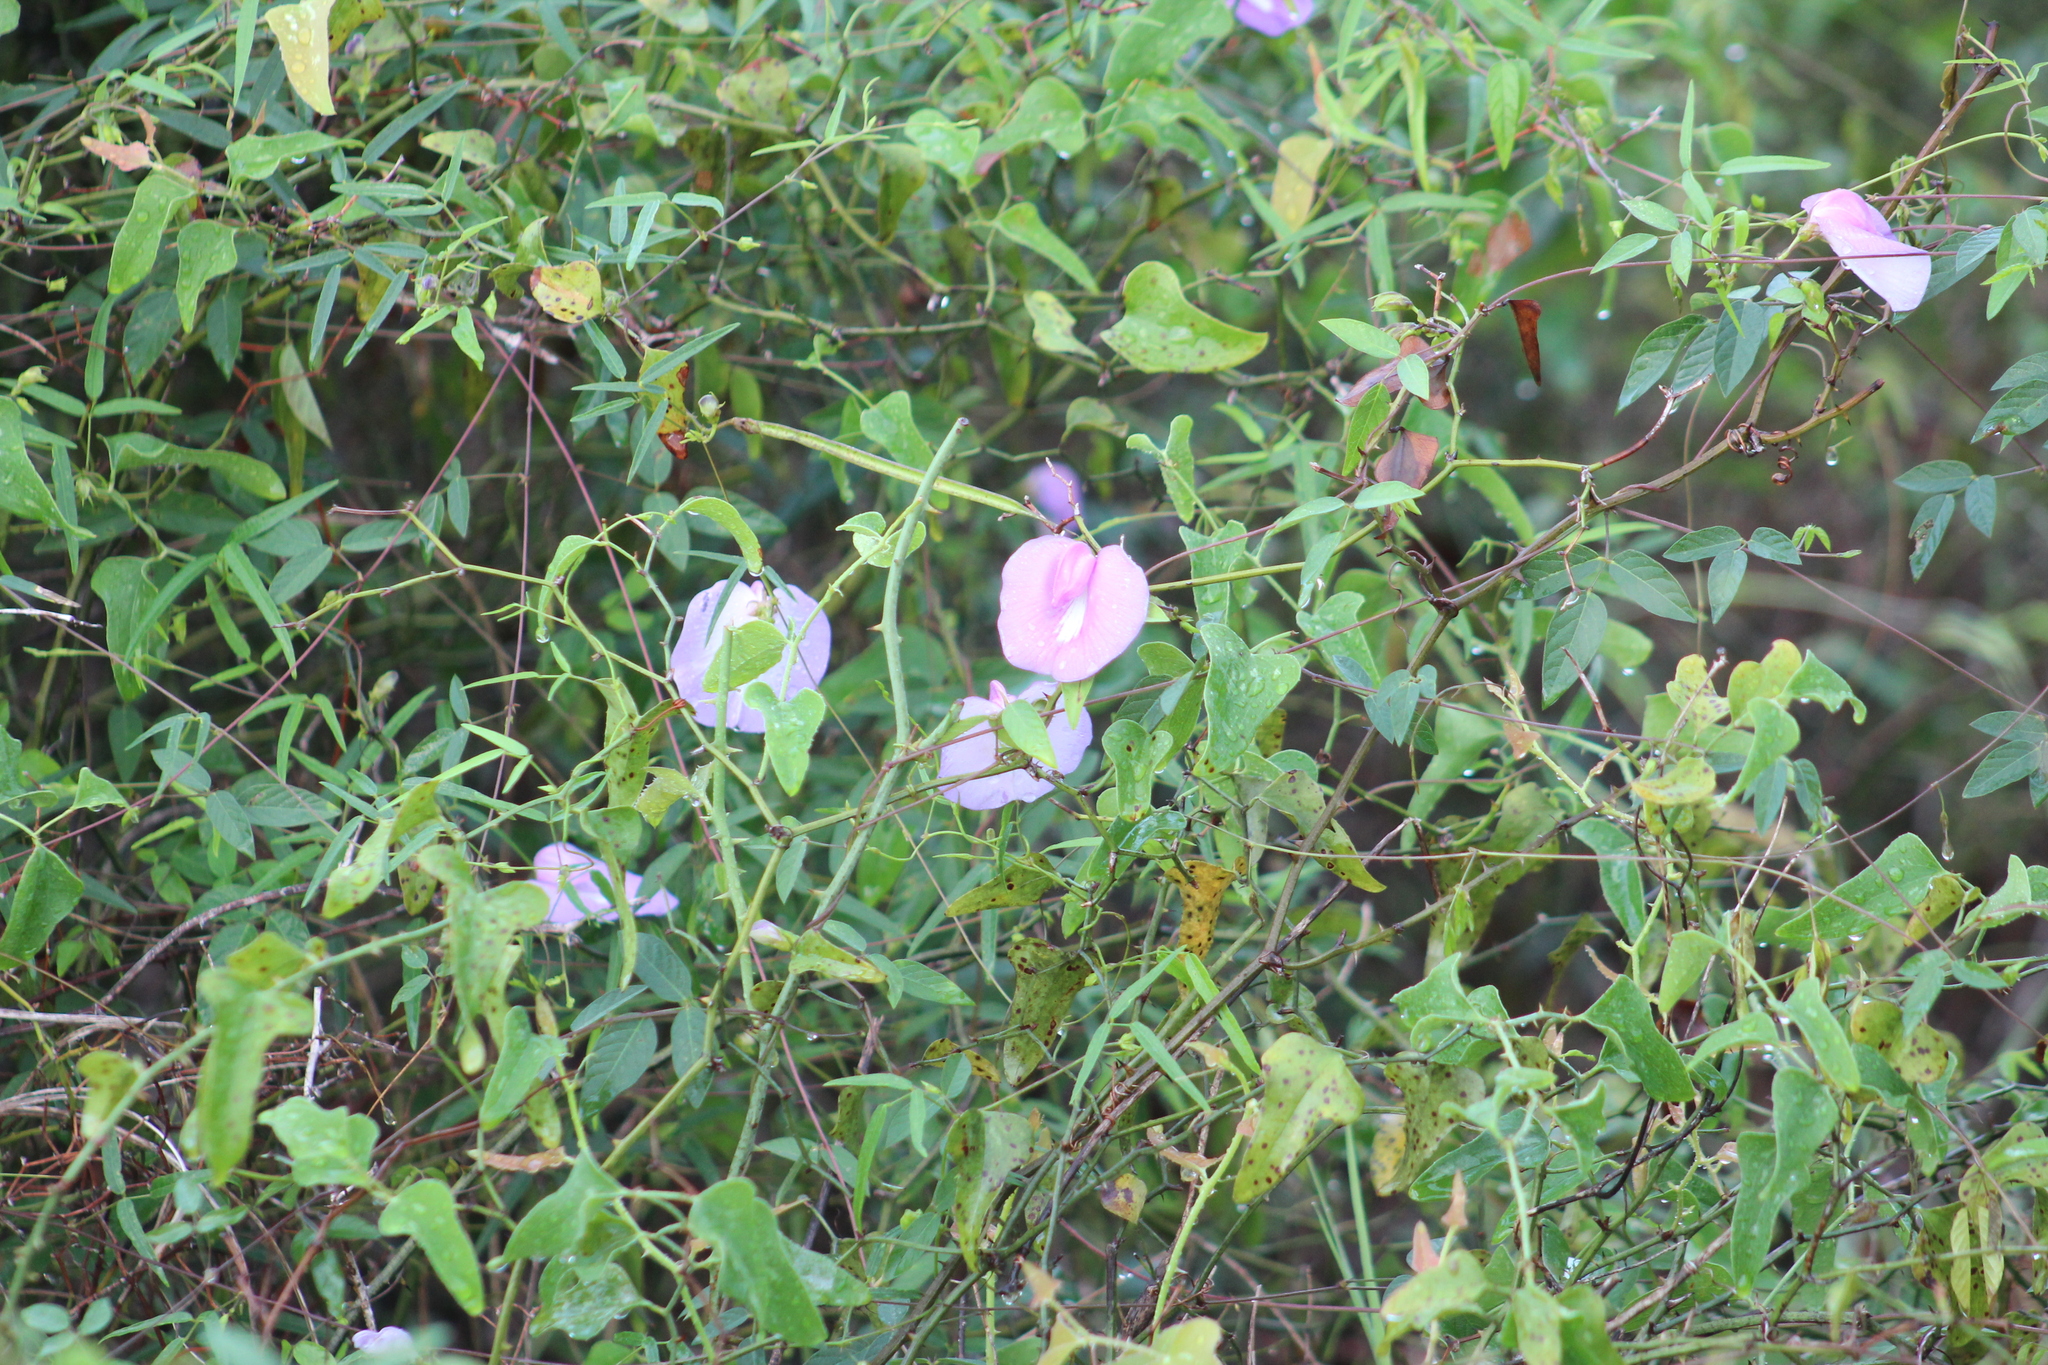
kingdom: Plantae
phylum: Tracheophyta
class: Magnoliopsida
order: Fabales
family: Fabaceae
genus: Centrosema
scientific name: Centrosema virginianum
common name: Butterfly-pea
